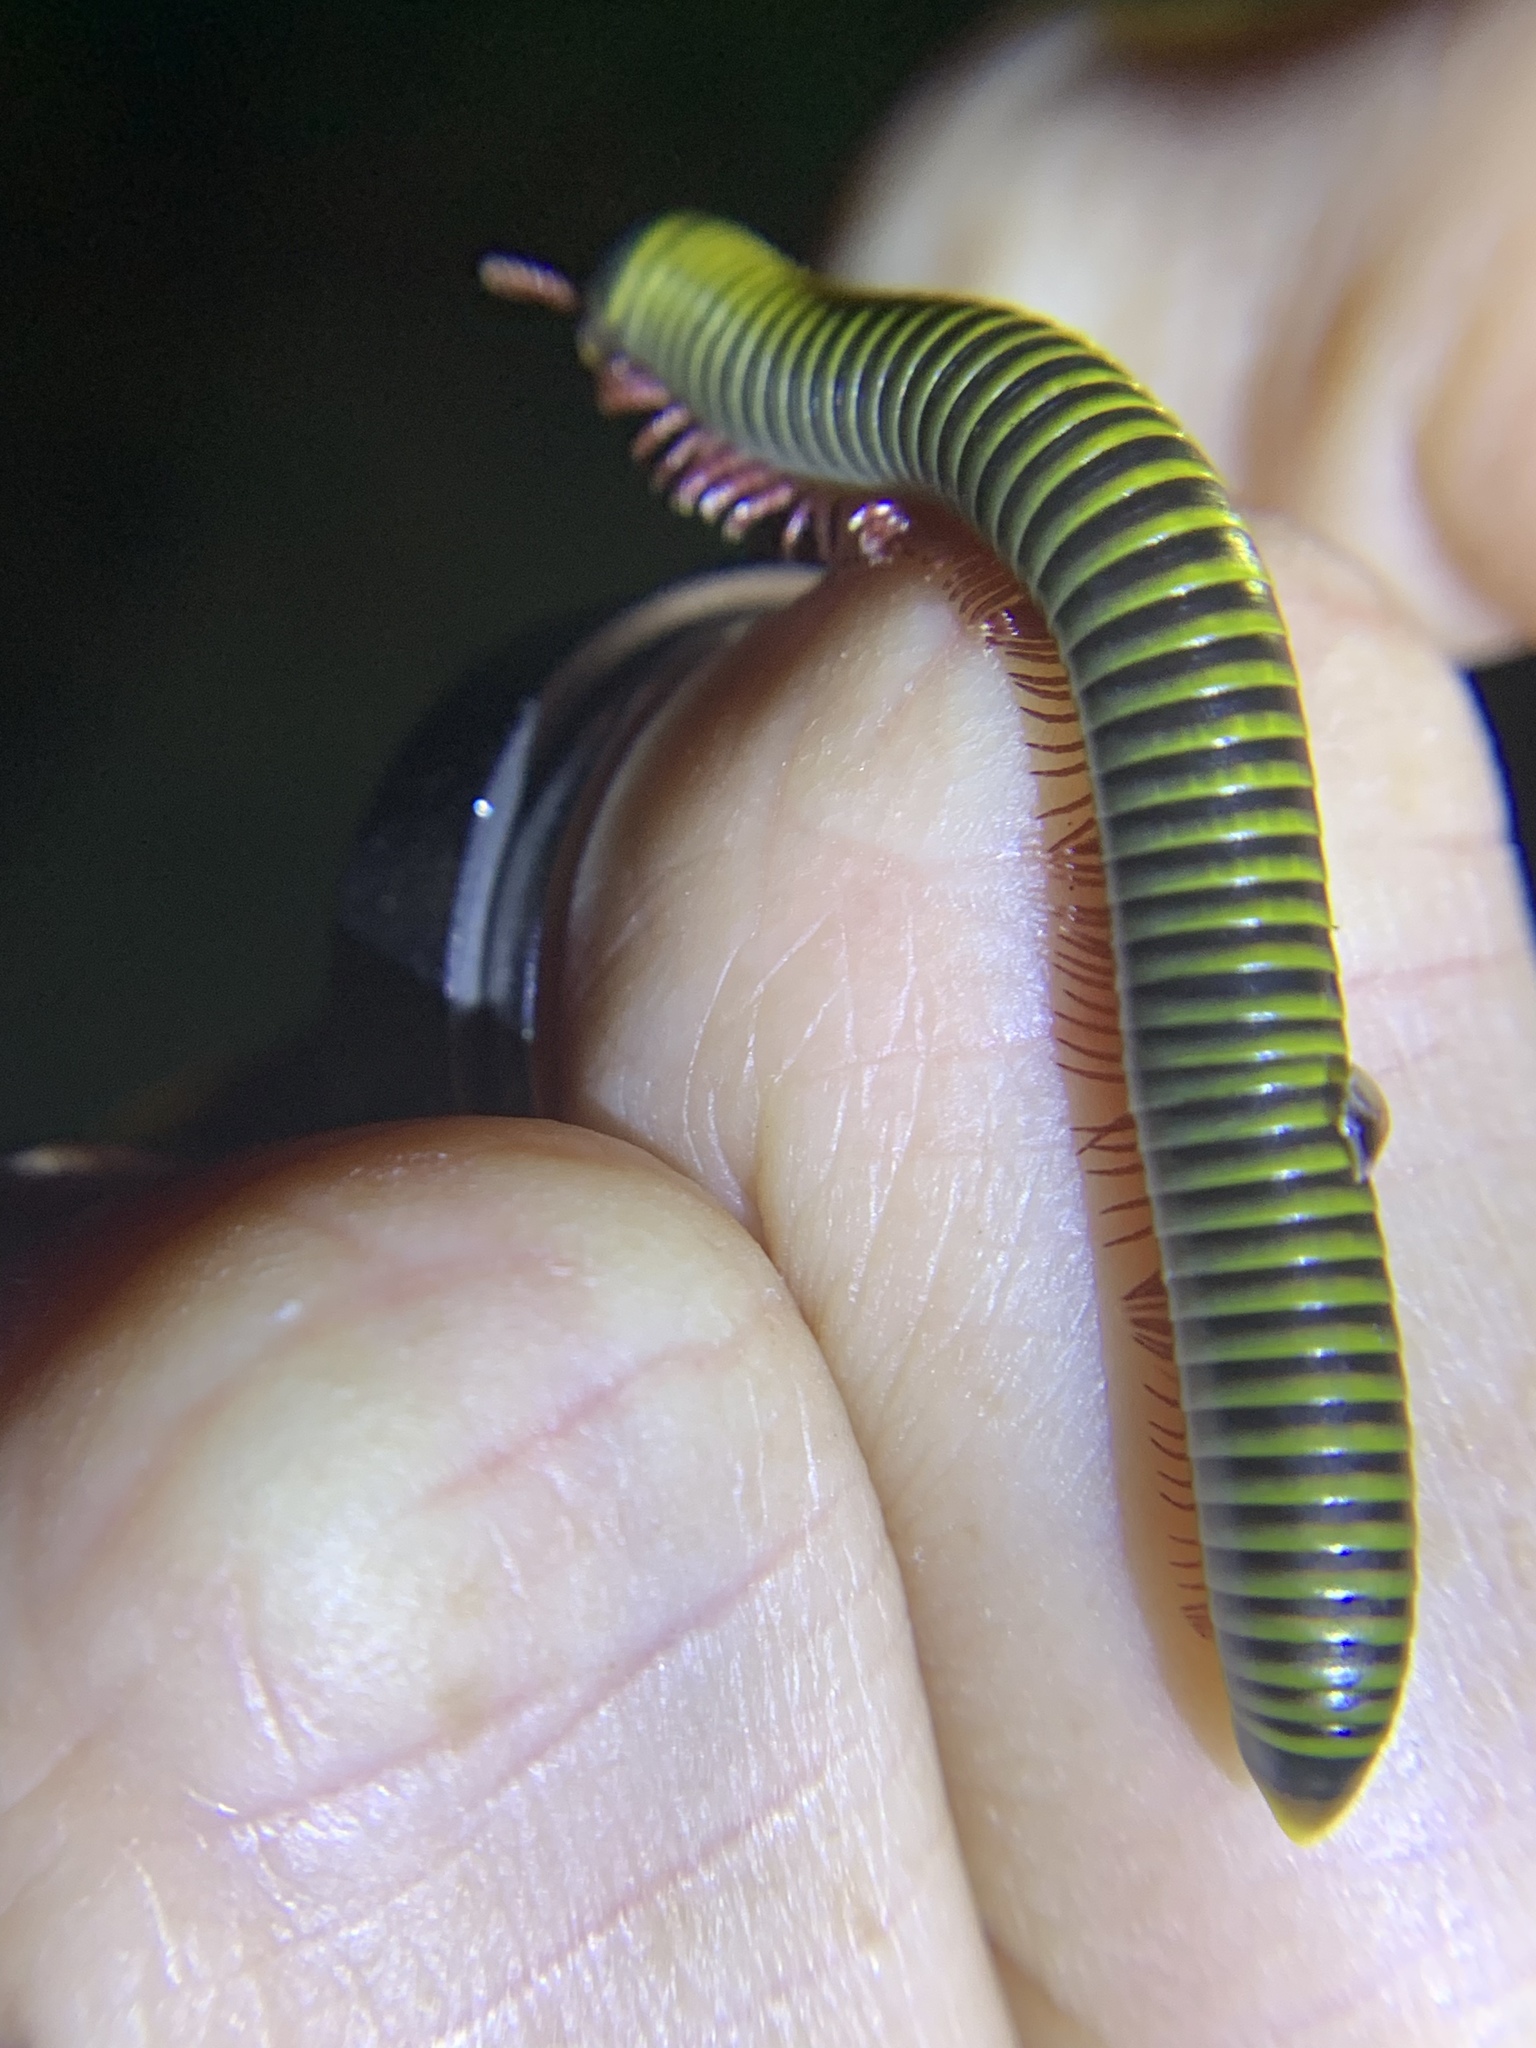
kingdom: Animalia
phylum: Arthropoda
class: Diplopoda
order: Spirobolida
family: Rhinocricidae
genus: Anadenobolus
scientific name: Anadenobolus monilicornis
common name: Caribbean millipede
